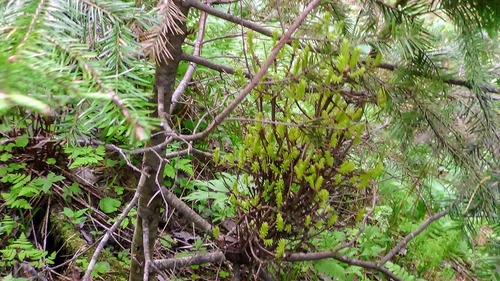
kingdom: Fungi
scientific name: Fungi
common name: Fungi
